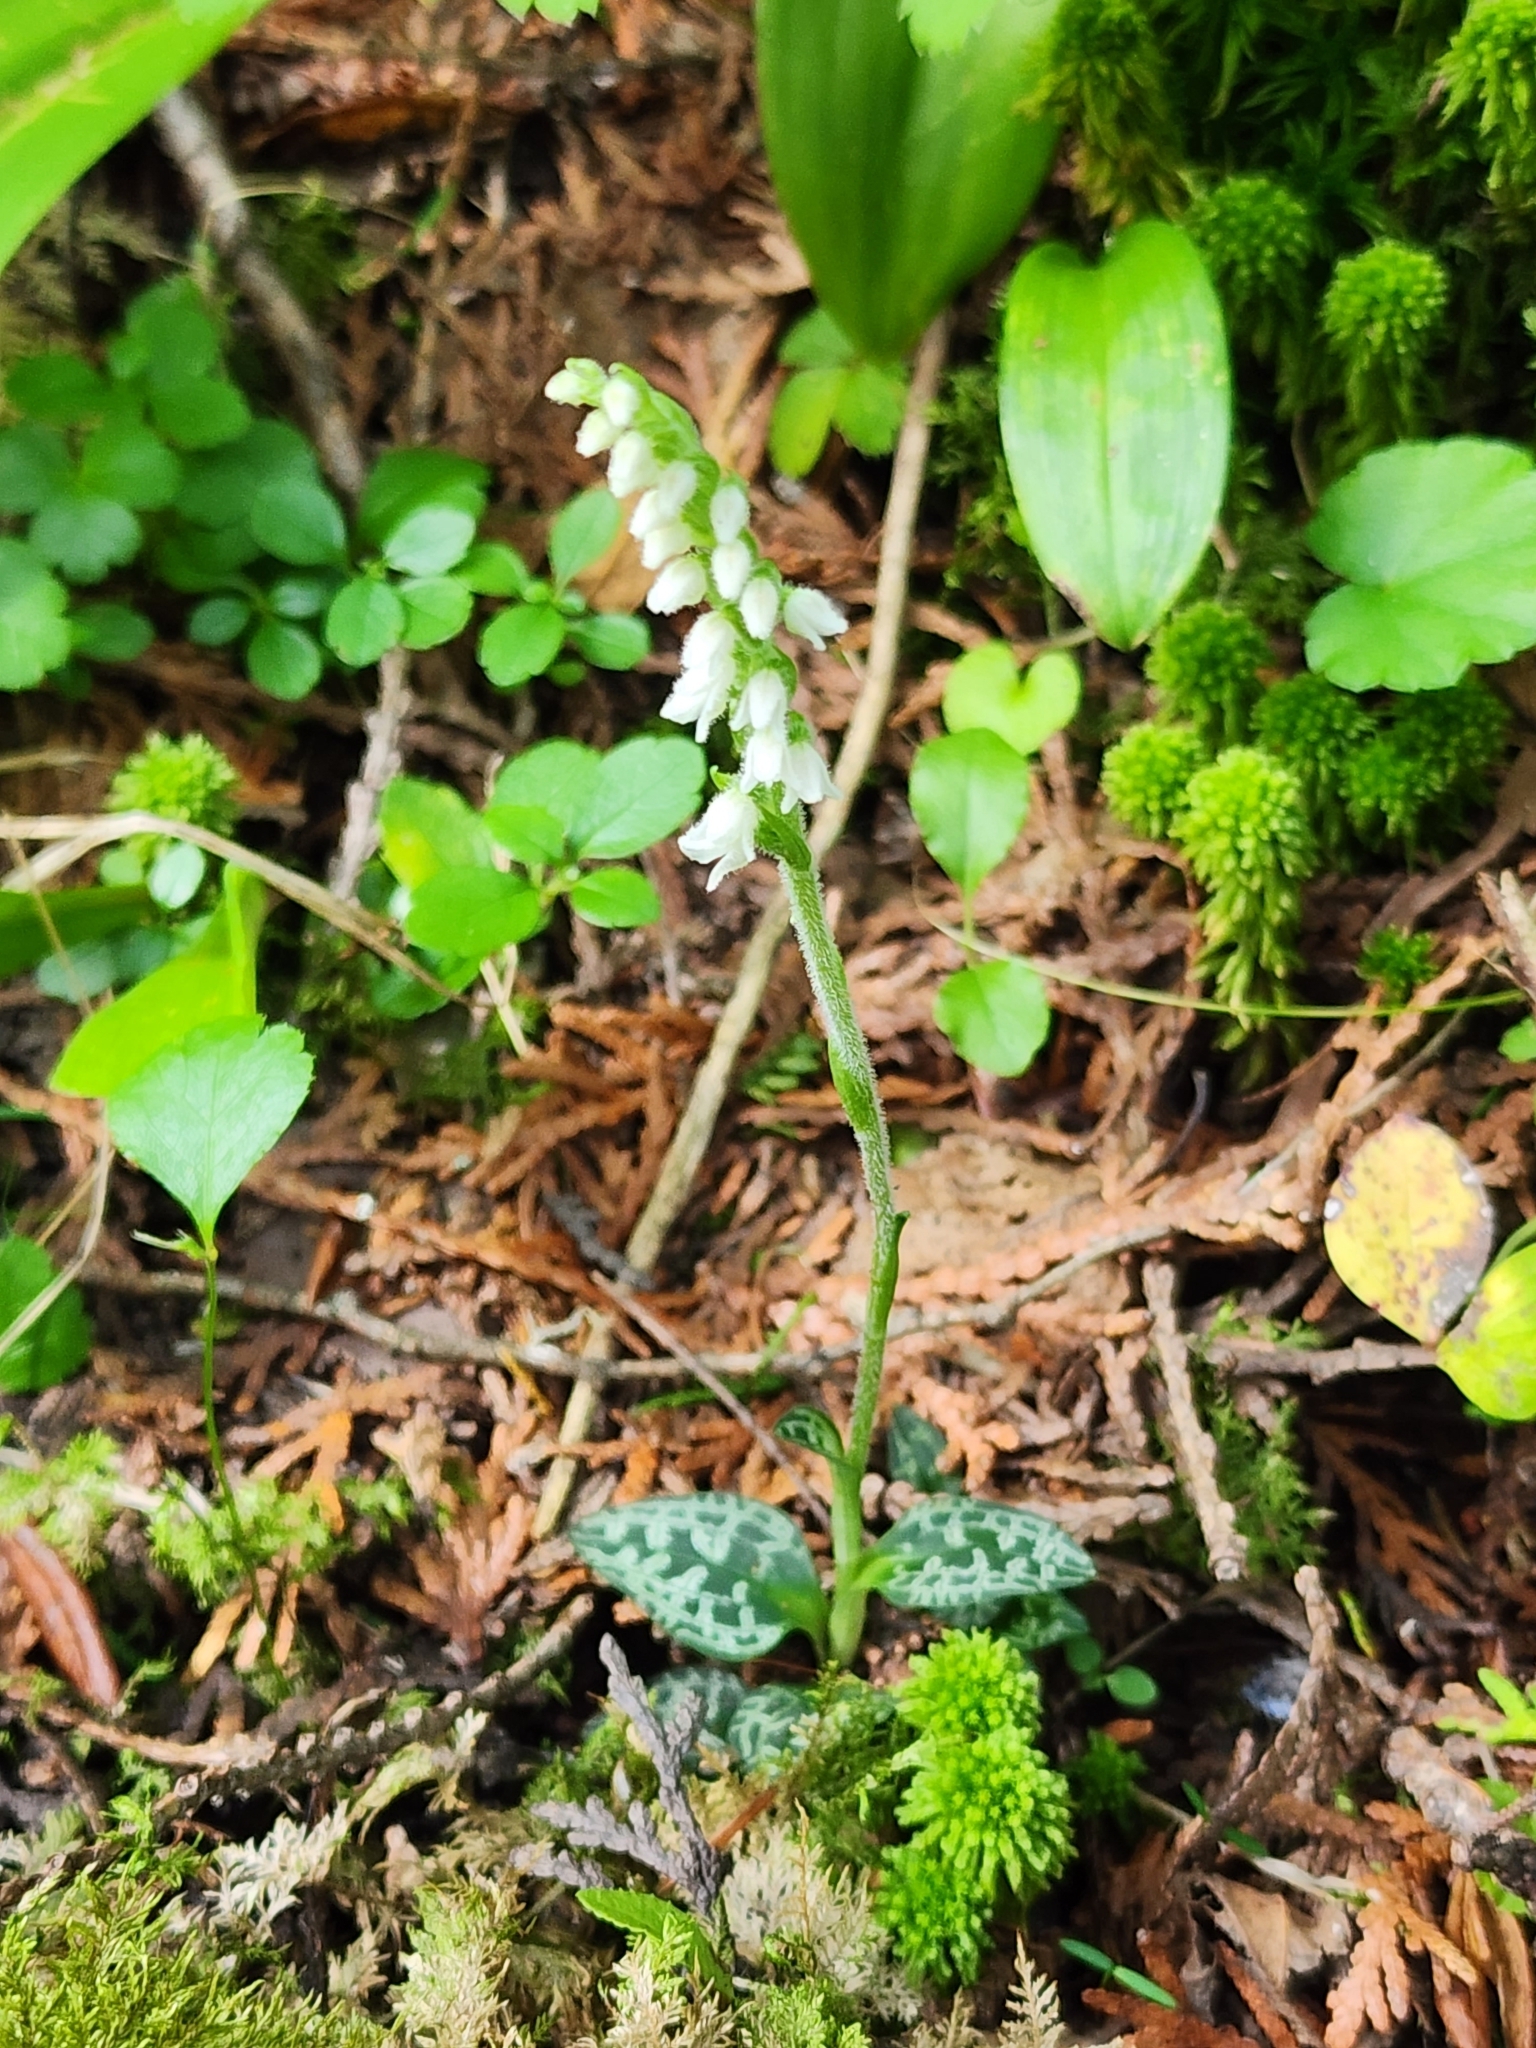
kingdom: Plantae
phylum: Tracheophyta
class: Liliopsida
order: Asparagales
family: Orchidaceae
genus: Goodyera
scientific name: Goodyera repens
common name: Creeping lady's-tresses
